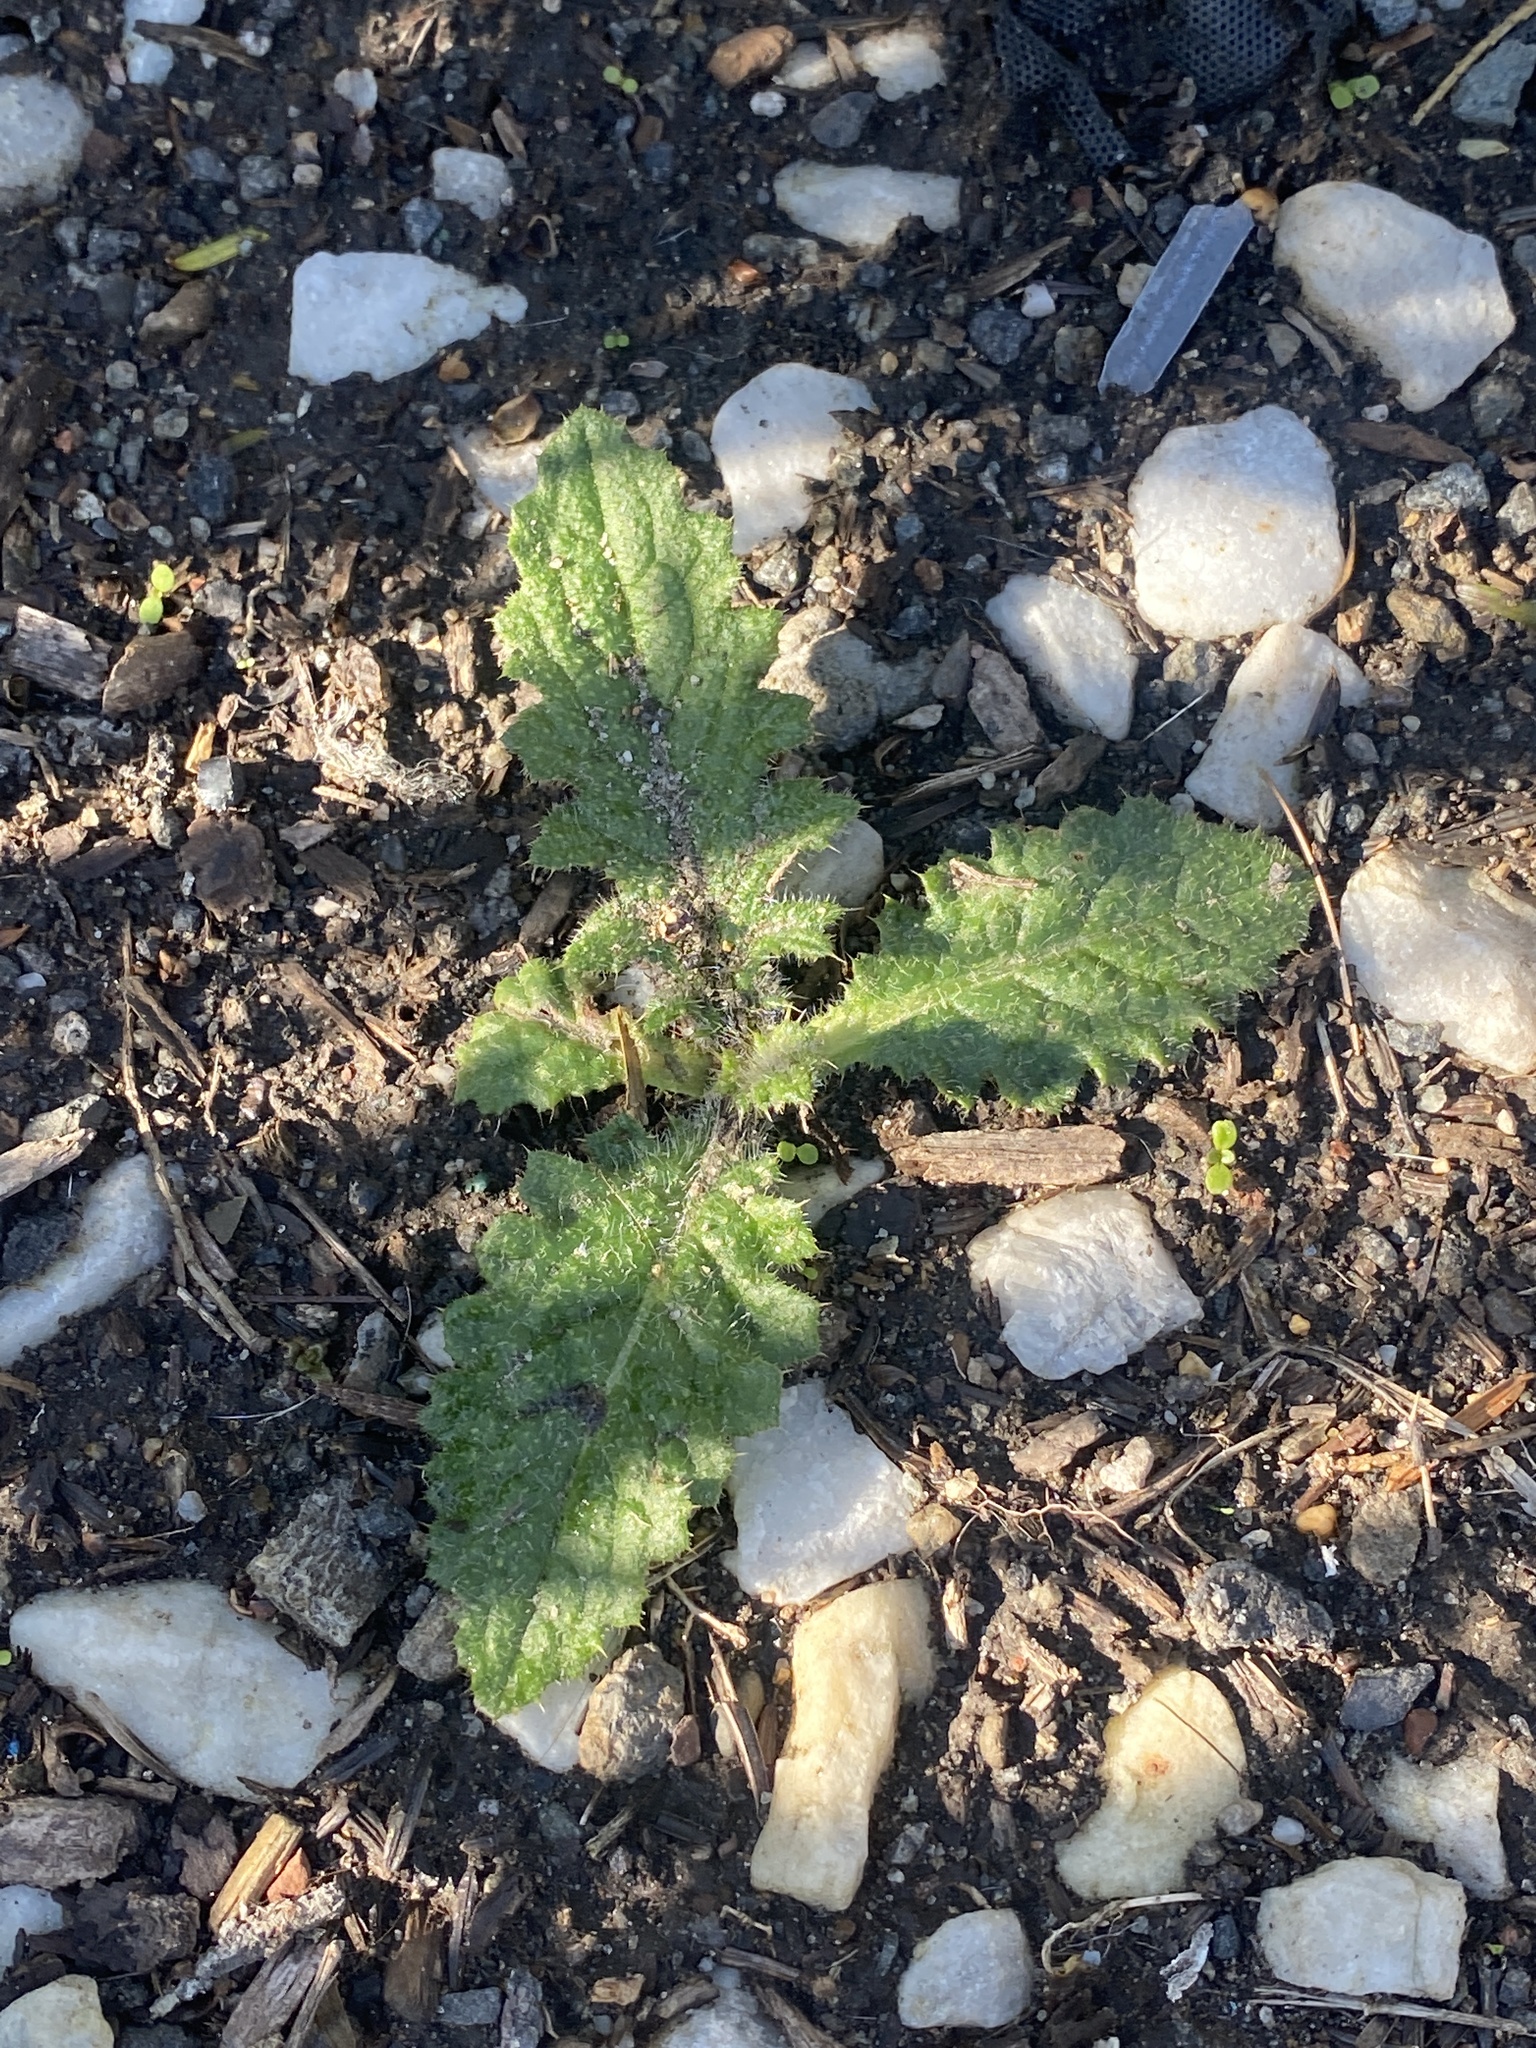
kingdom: Plantae
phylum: Tracheophyta
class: Magnoliopsida
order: Asterales
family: Asteraceae
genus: Cirsium
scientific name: Cirsium vulgare
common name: Bull thistle
